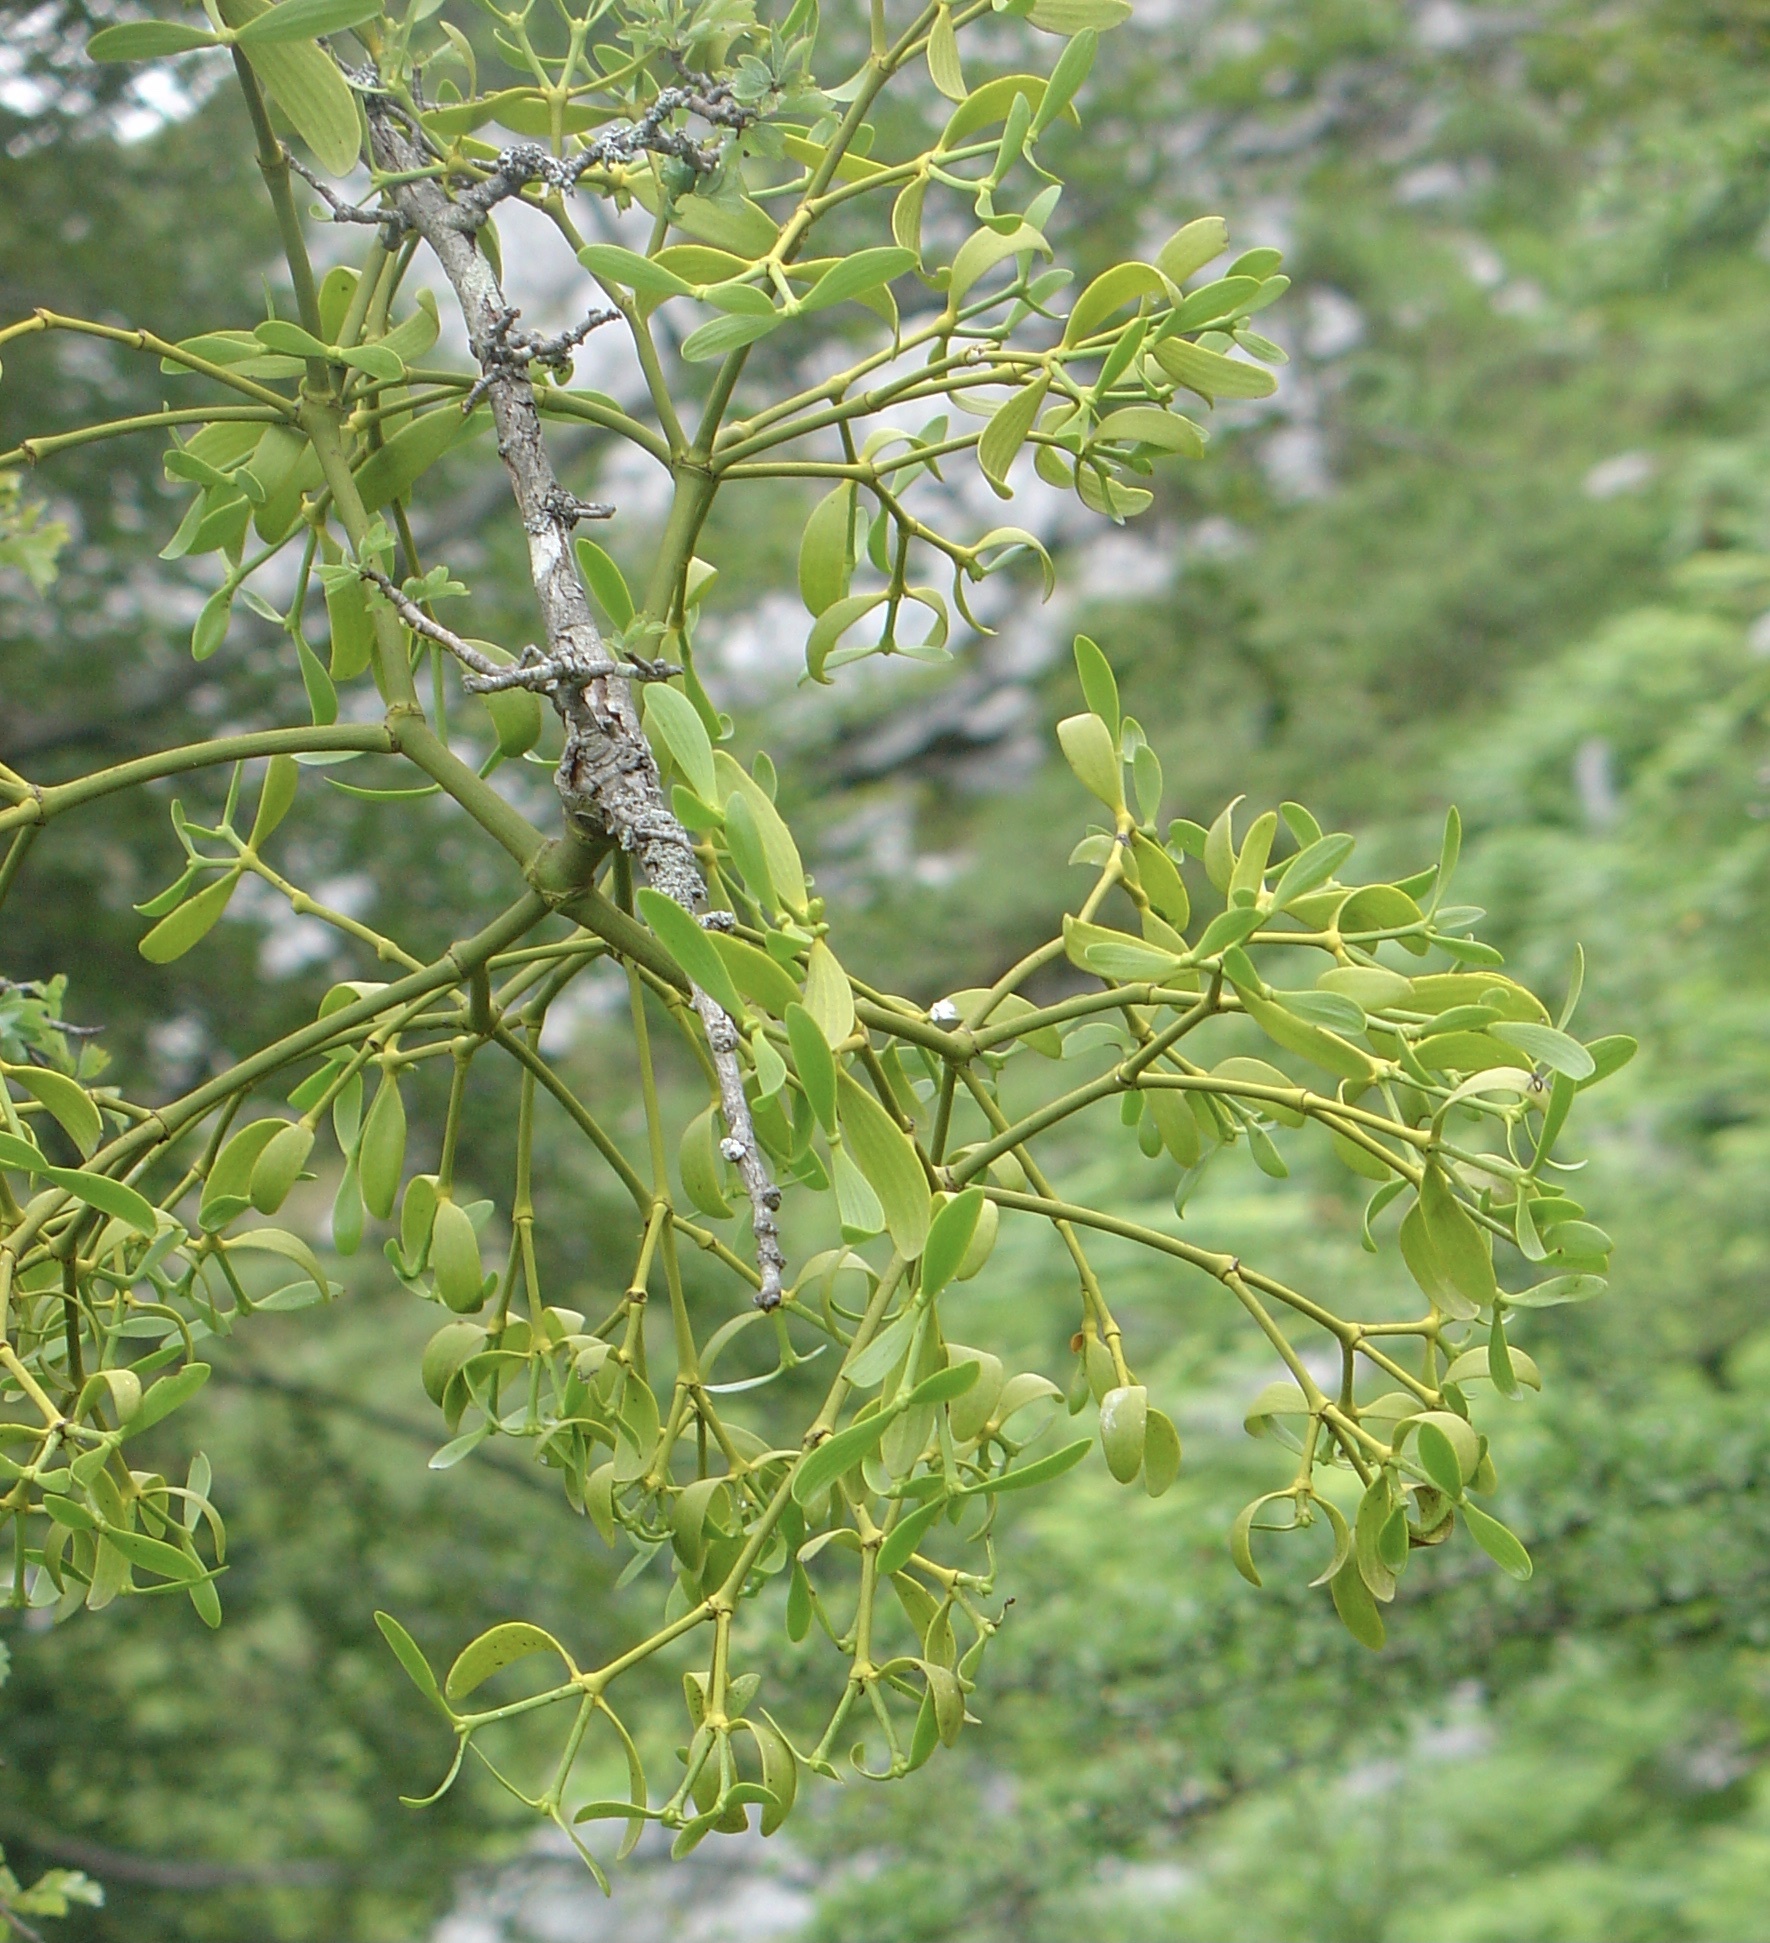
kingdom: Plantae
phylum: Tracheophyta
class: Magnoliopsida
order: Santalales
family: Viscaceae
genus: Viscum
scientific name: Viscum album
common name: Mistletoe
